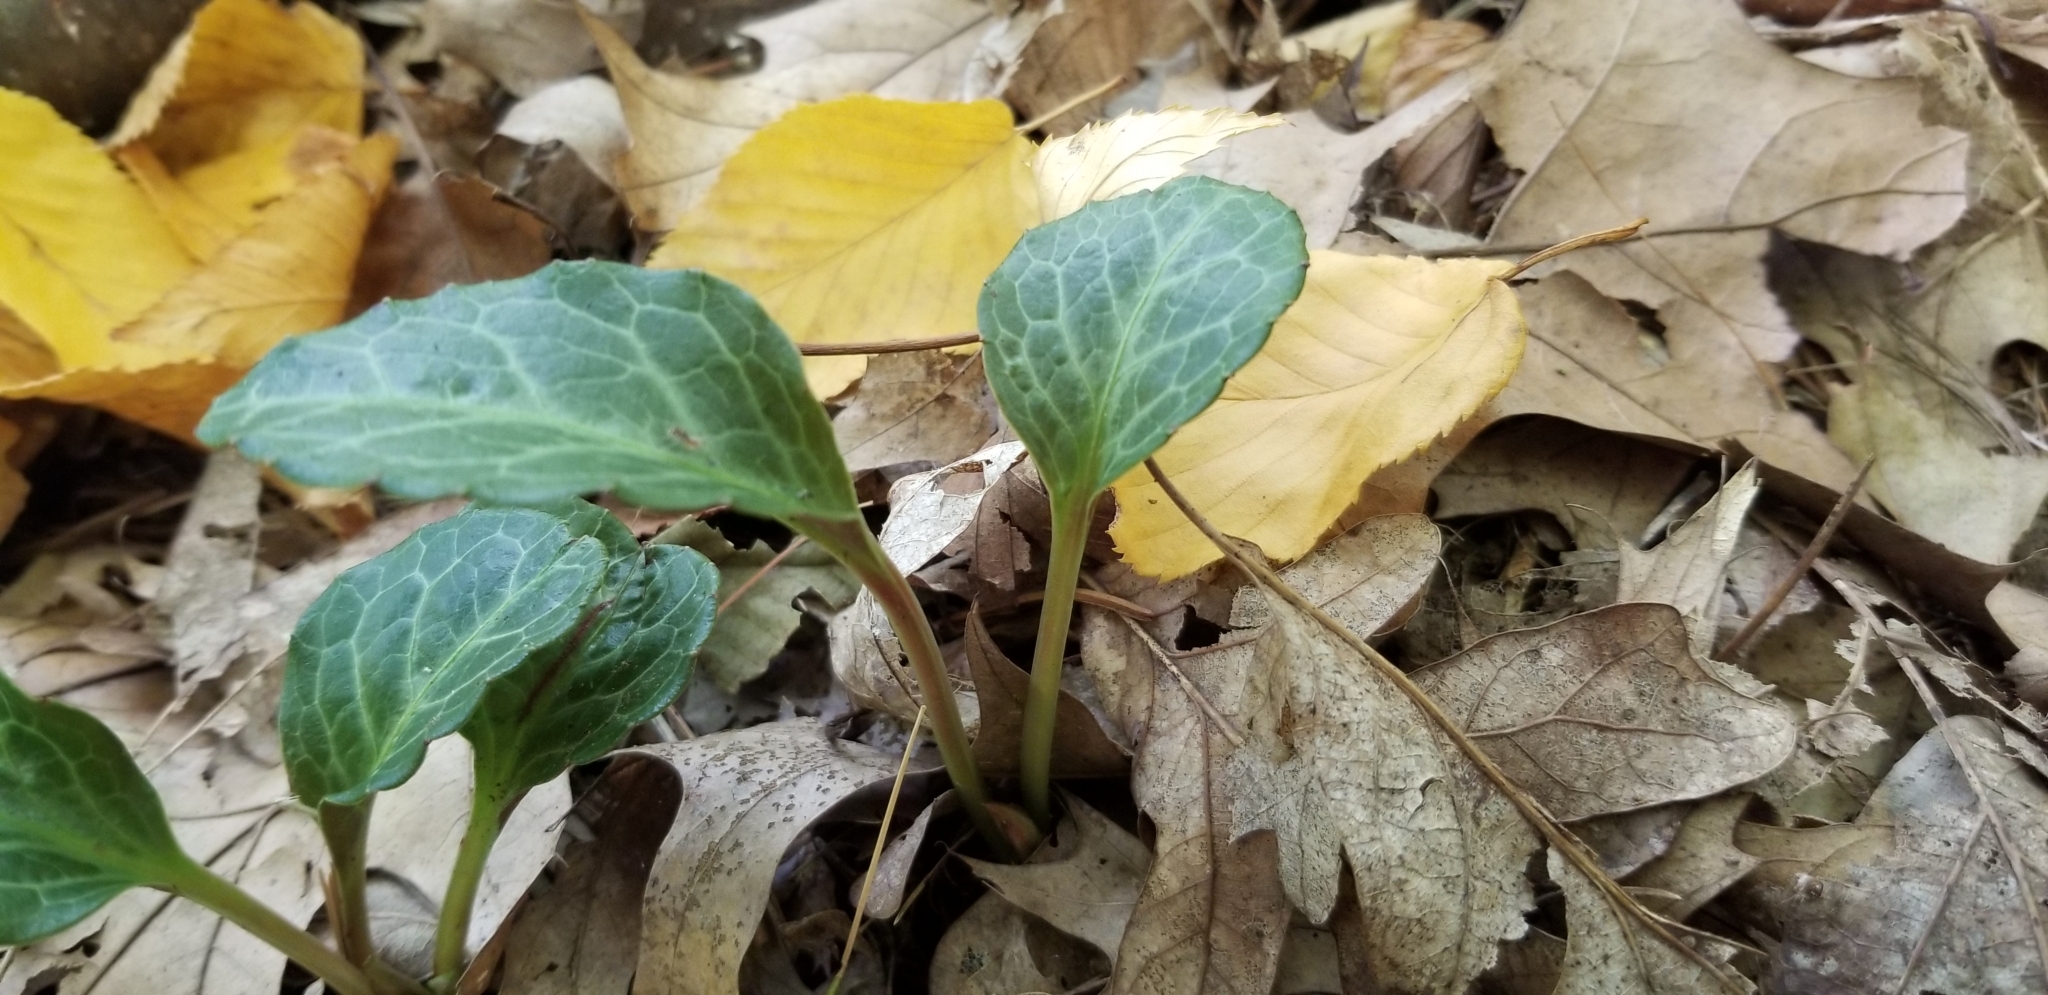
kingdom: Plantae
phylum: Tracheophyta
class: Magnoliopsida
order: Ericales
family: Ericaceae
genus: Pyrola
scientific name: Pyrola americana
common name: American wintergreen
